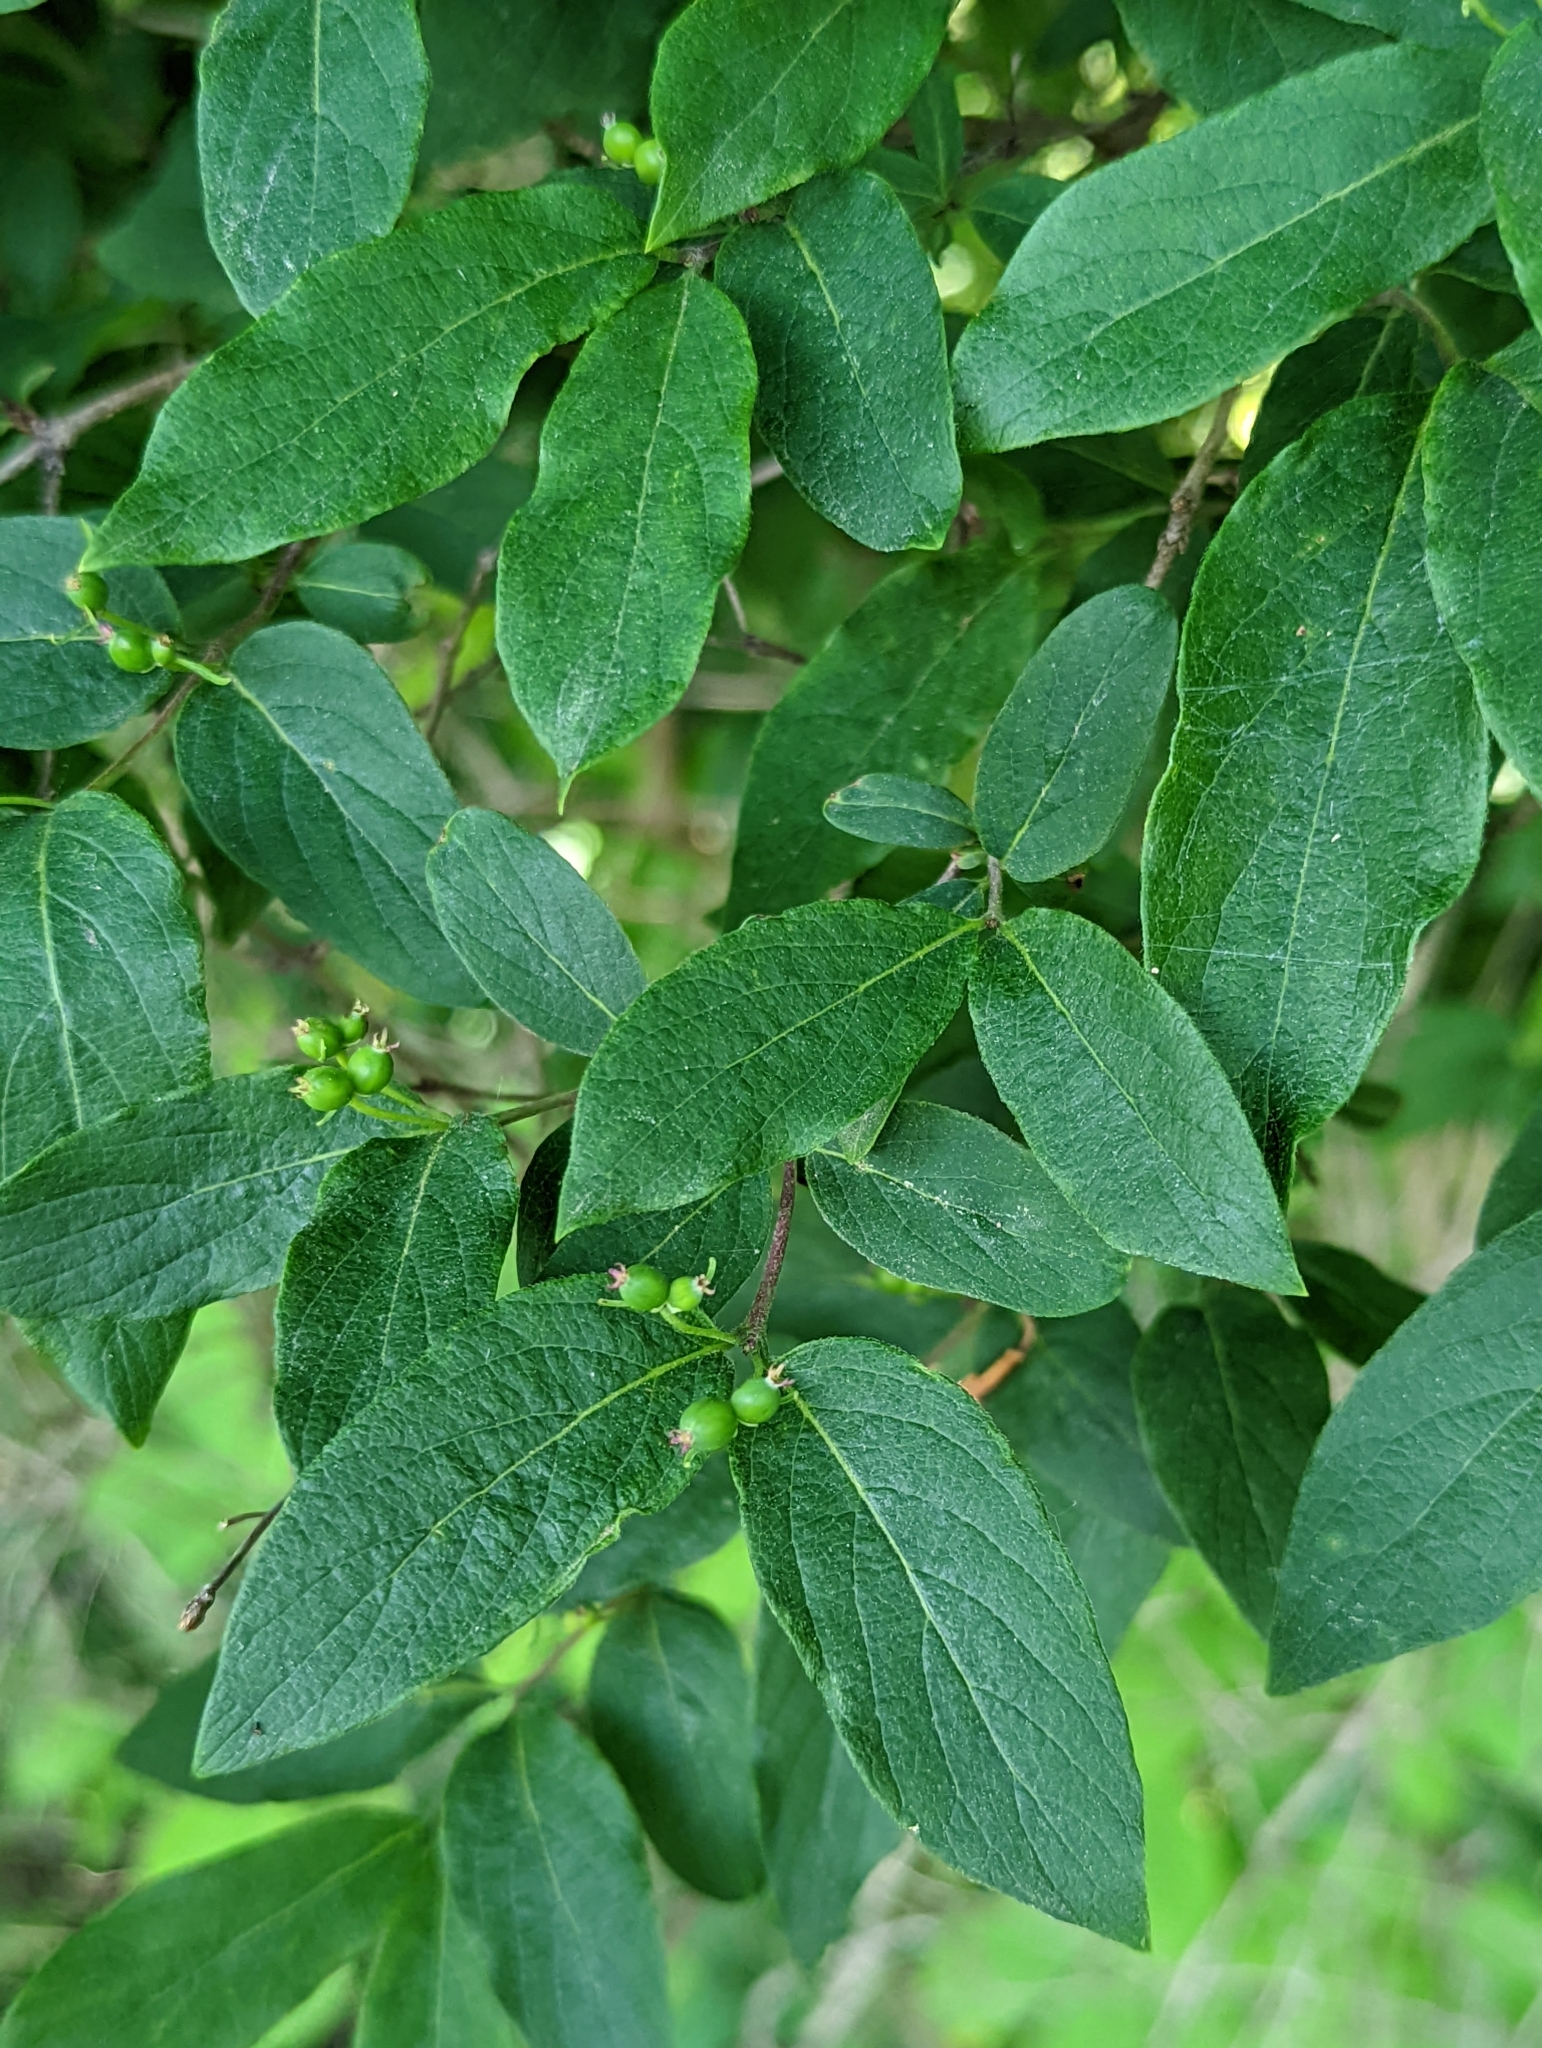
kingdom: Plantae
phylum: Tracheophyta
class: Magnoliopsida
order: Dipsacales
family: Caprifoliaceae
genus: Lonicera
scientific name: Lonicera morrowii
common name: Morrow's honeysuckle
